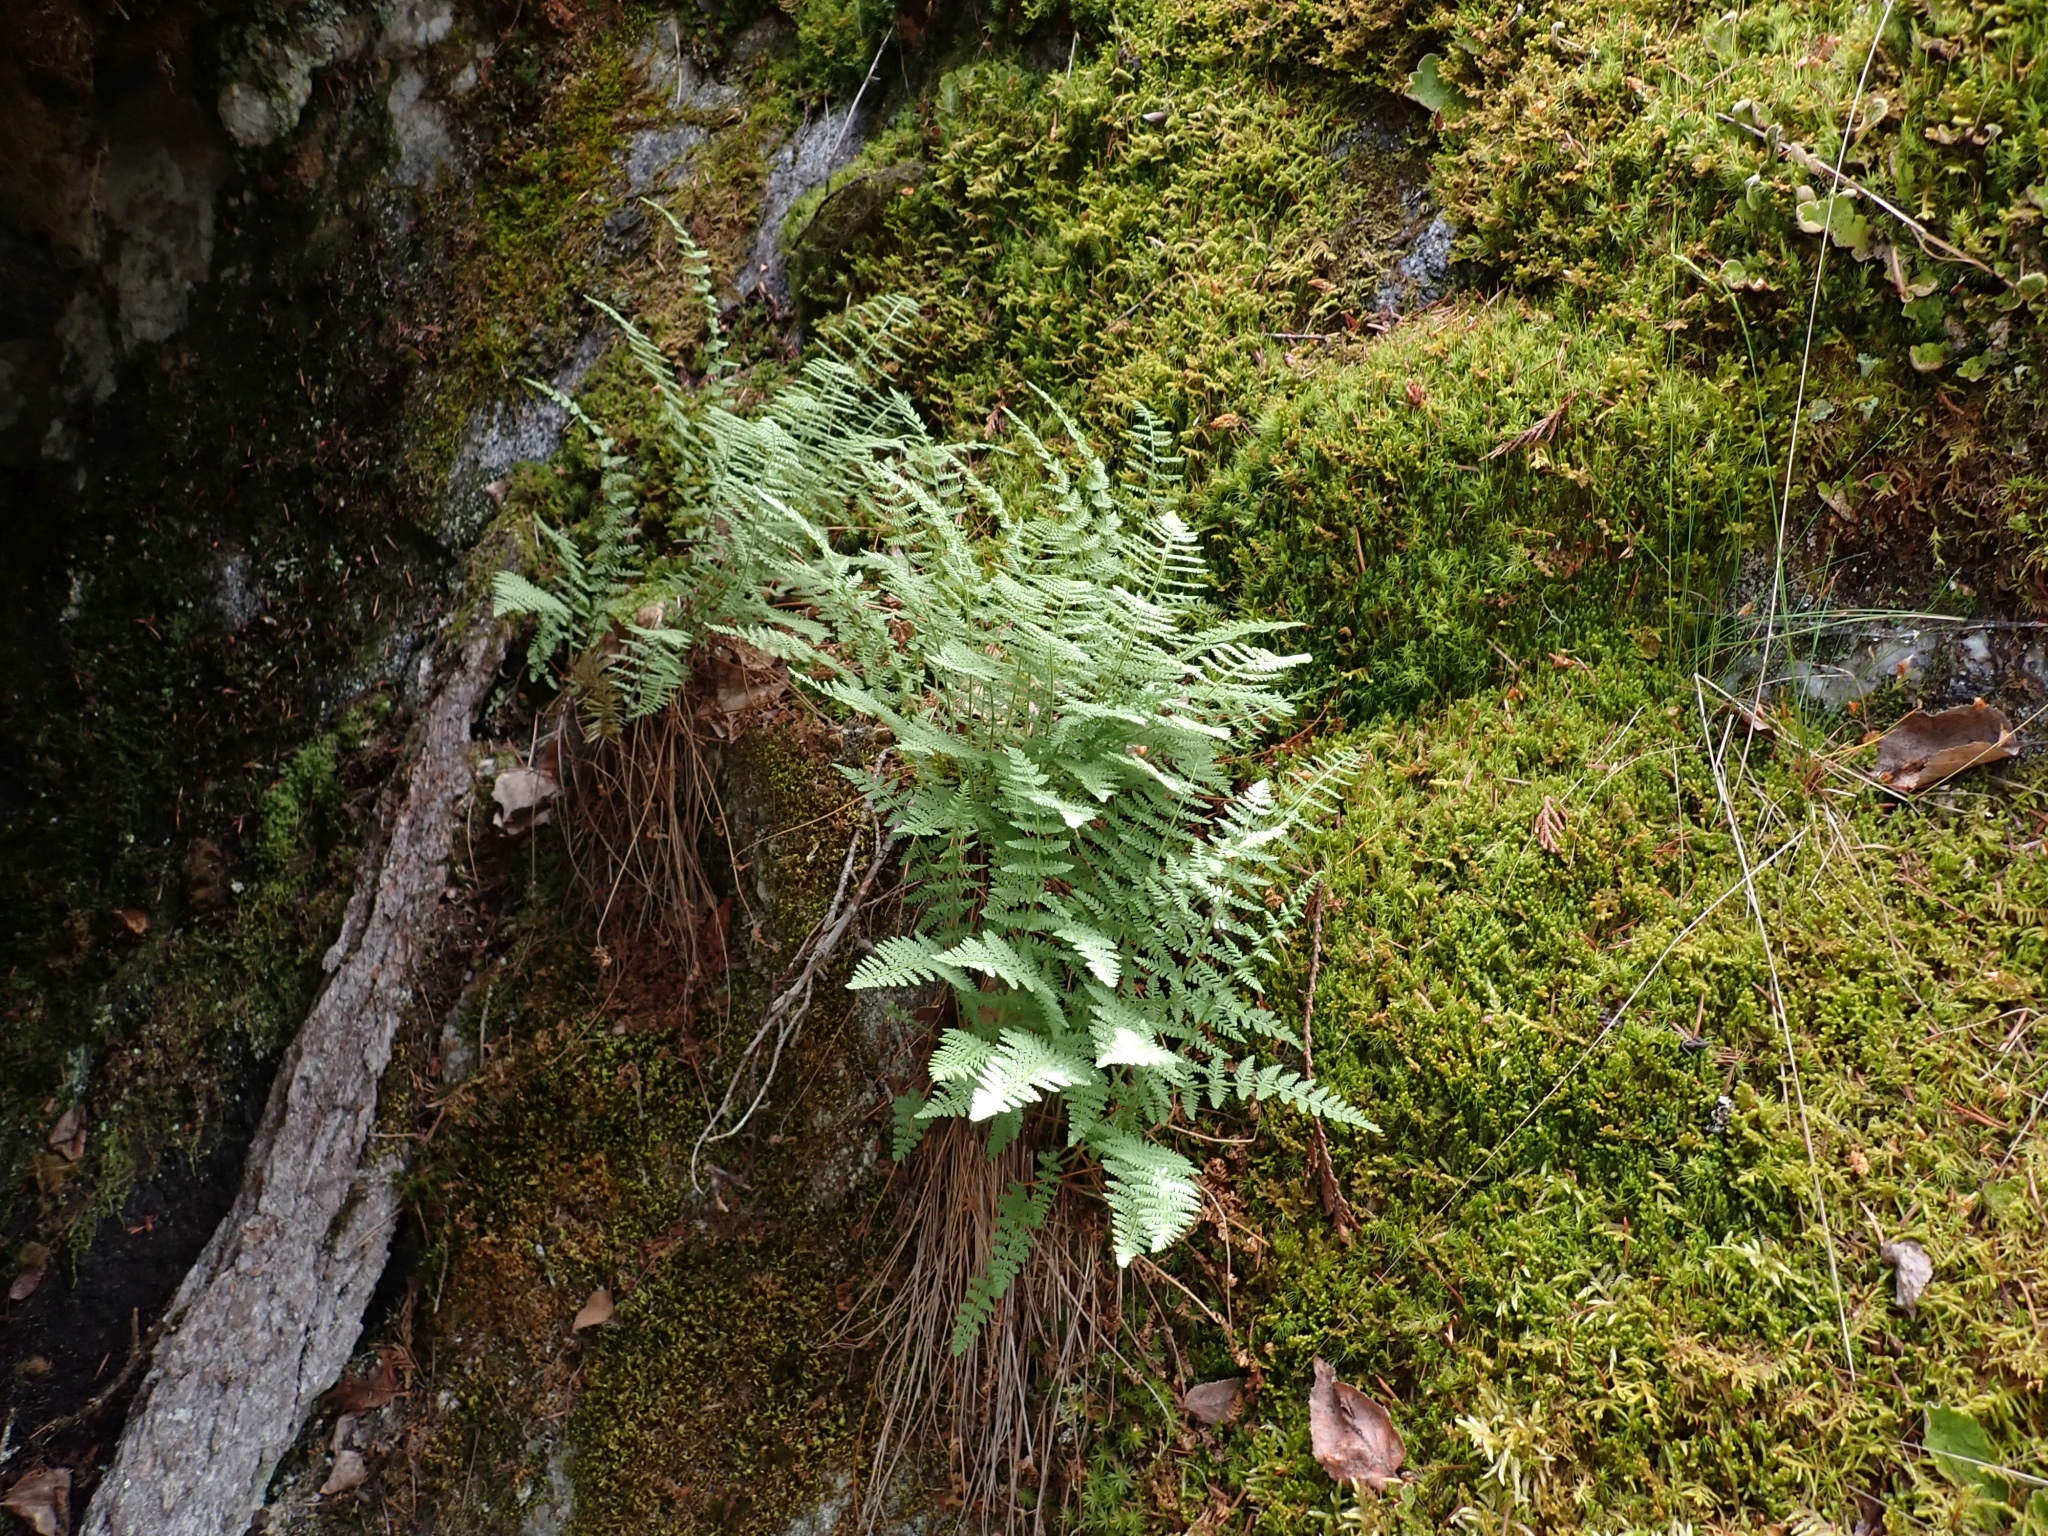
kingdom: Plantae
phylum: Tracheophyta
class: Polypodiopsida
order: Polypodiales
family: Woodsiaceae
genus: Physematium
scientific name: Physematium scopulinum
